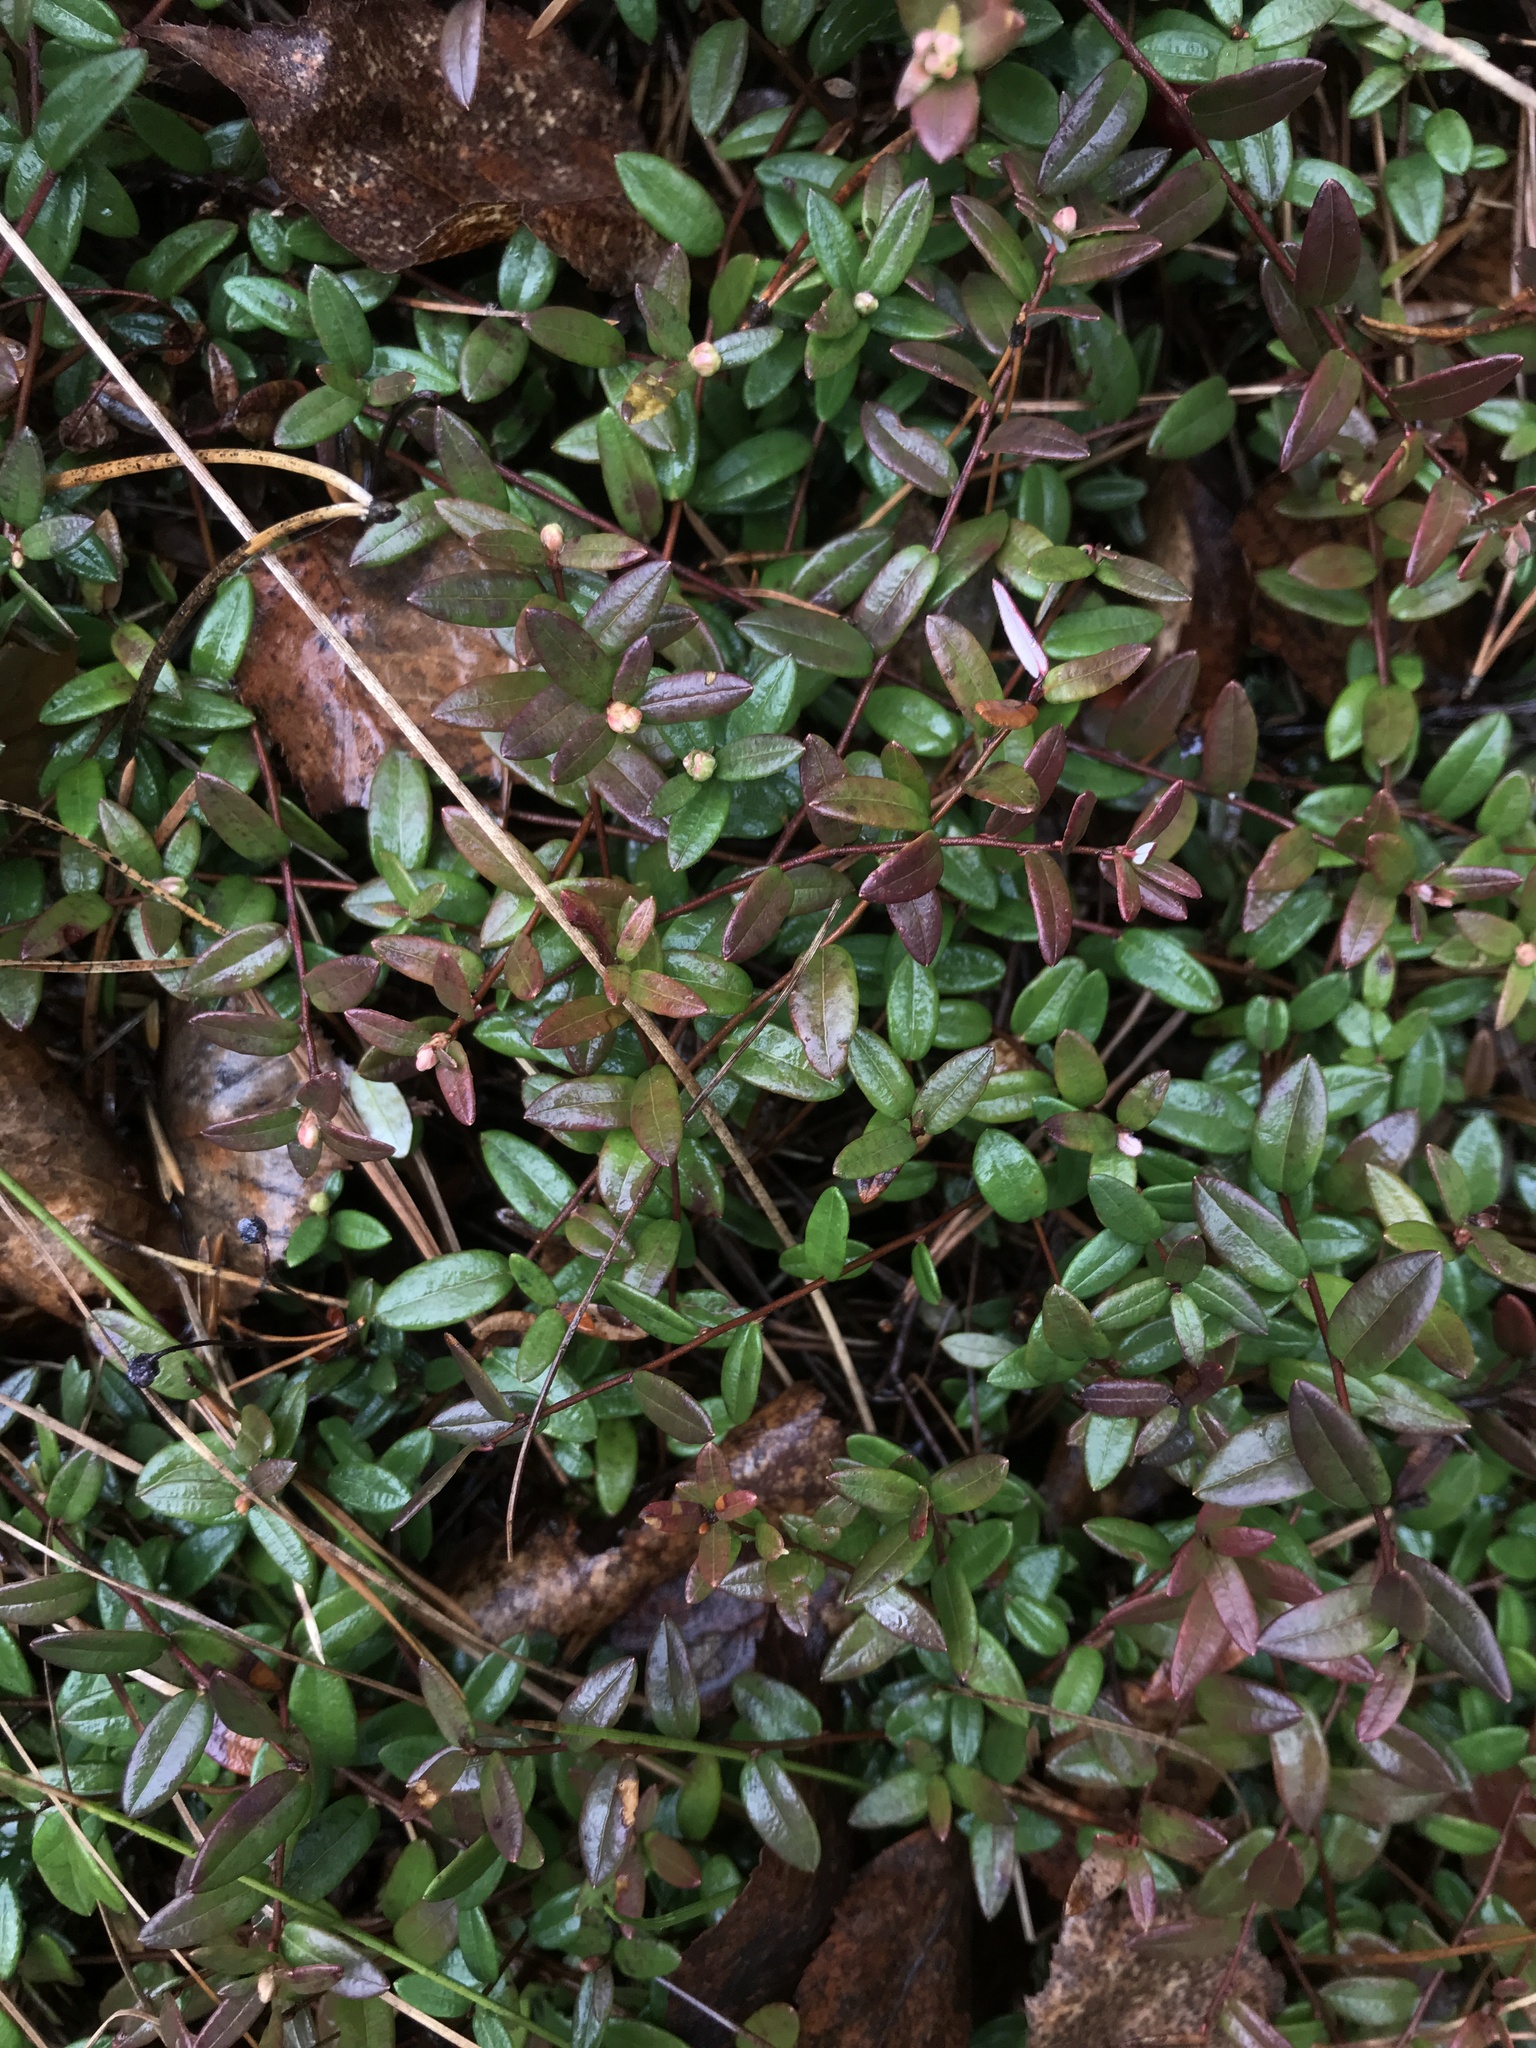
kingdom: Plantae
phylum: Tracheophyta
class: Magnoliopsida
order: Ericales
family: Ericaceae
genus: Vaccinium
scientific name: Vaccinium oxycoccos
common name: Cranberry
